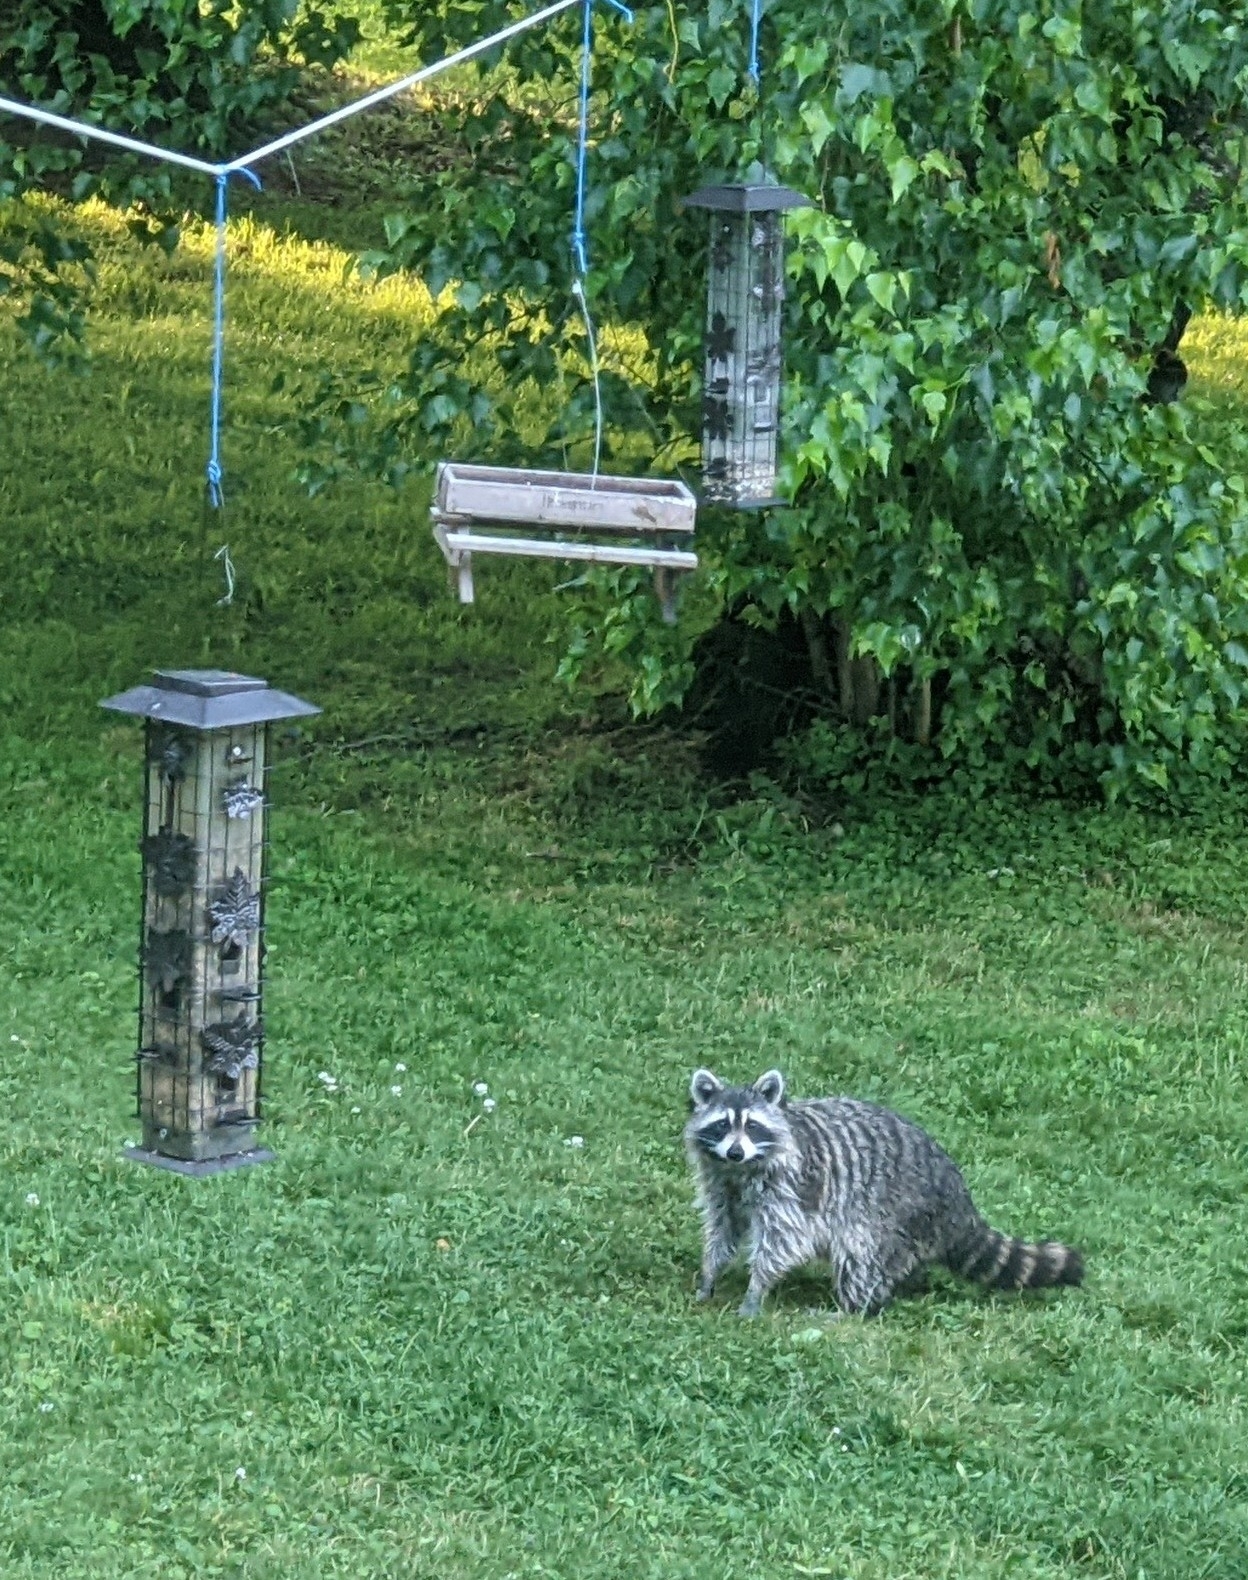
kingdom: Animalia
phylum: Chordata
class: Mammalia
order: Carnivora
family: Procyonidae
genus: Procyon
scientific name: Procyon lotor
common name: Raccoon
